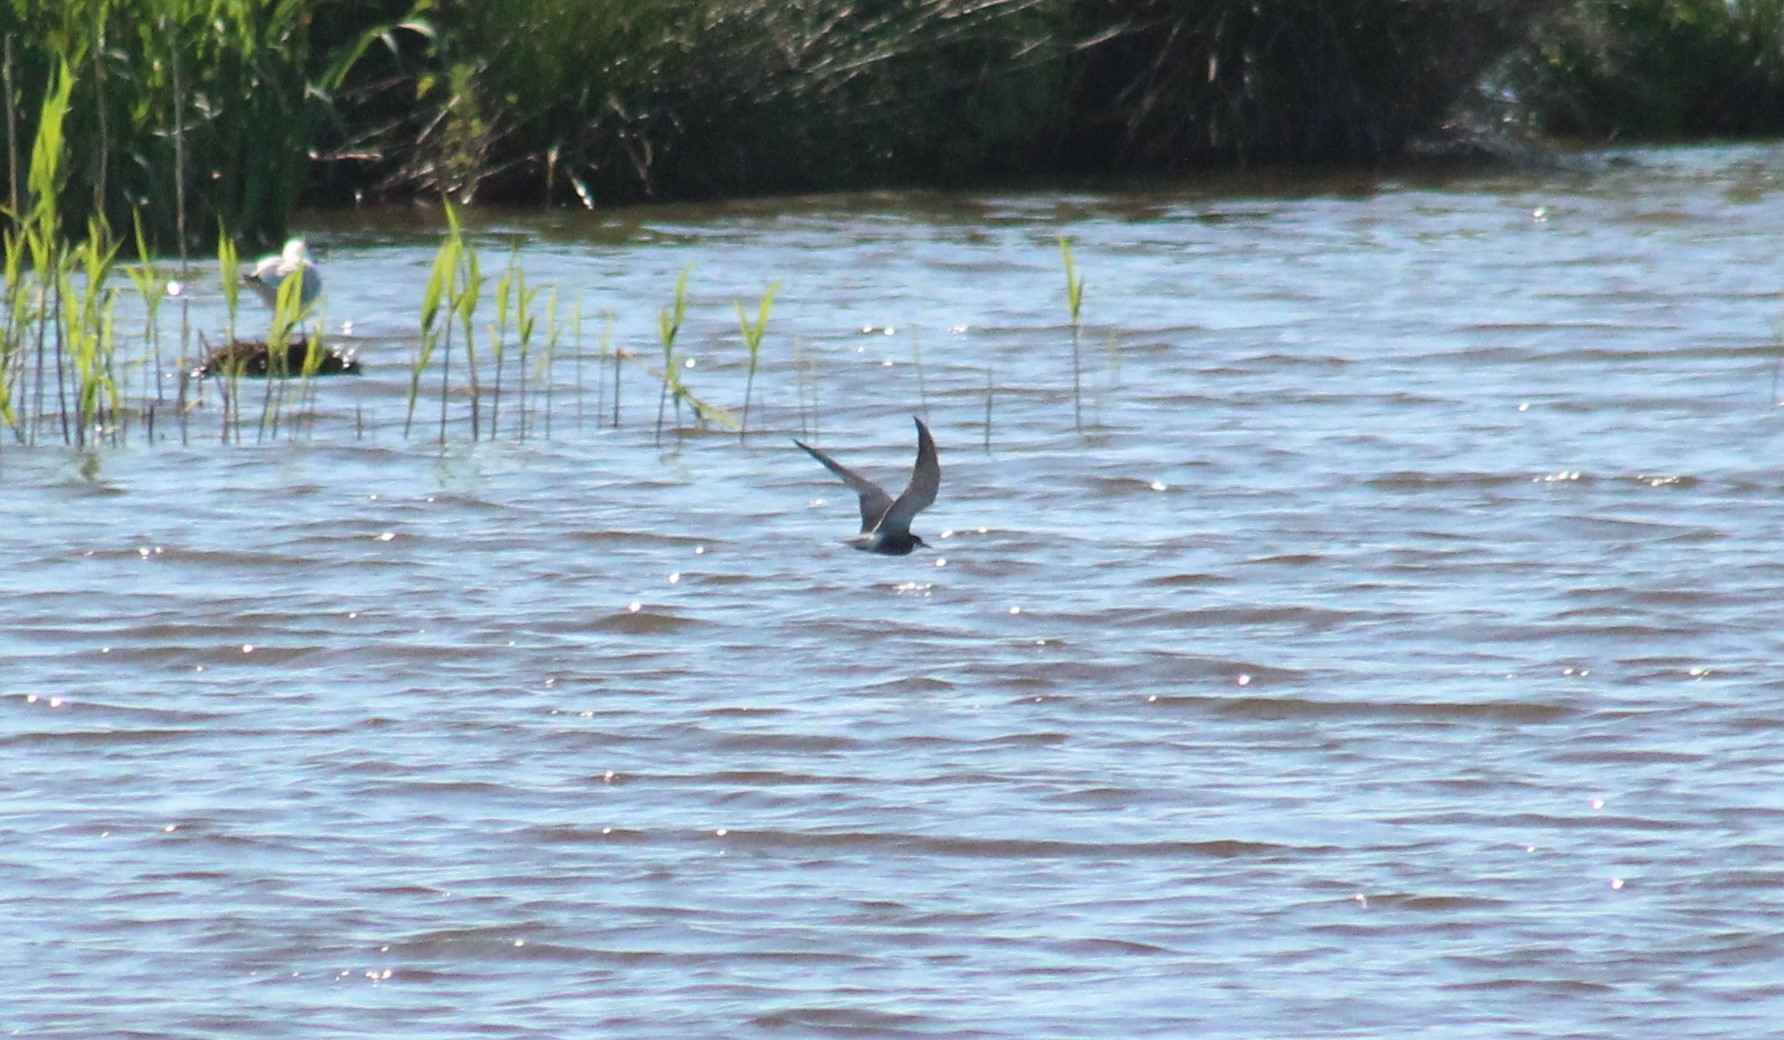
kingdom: Animalia
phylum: Chordata
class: Aves
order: Charadriiformes
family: Laridae
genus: Chlidonias
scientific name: Chlidonias hybrida
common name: Whiskered tern
